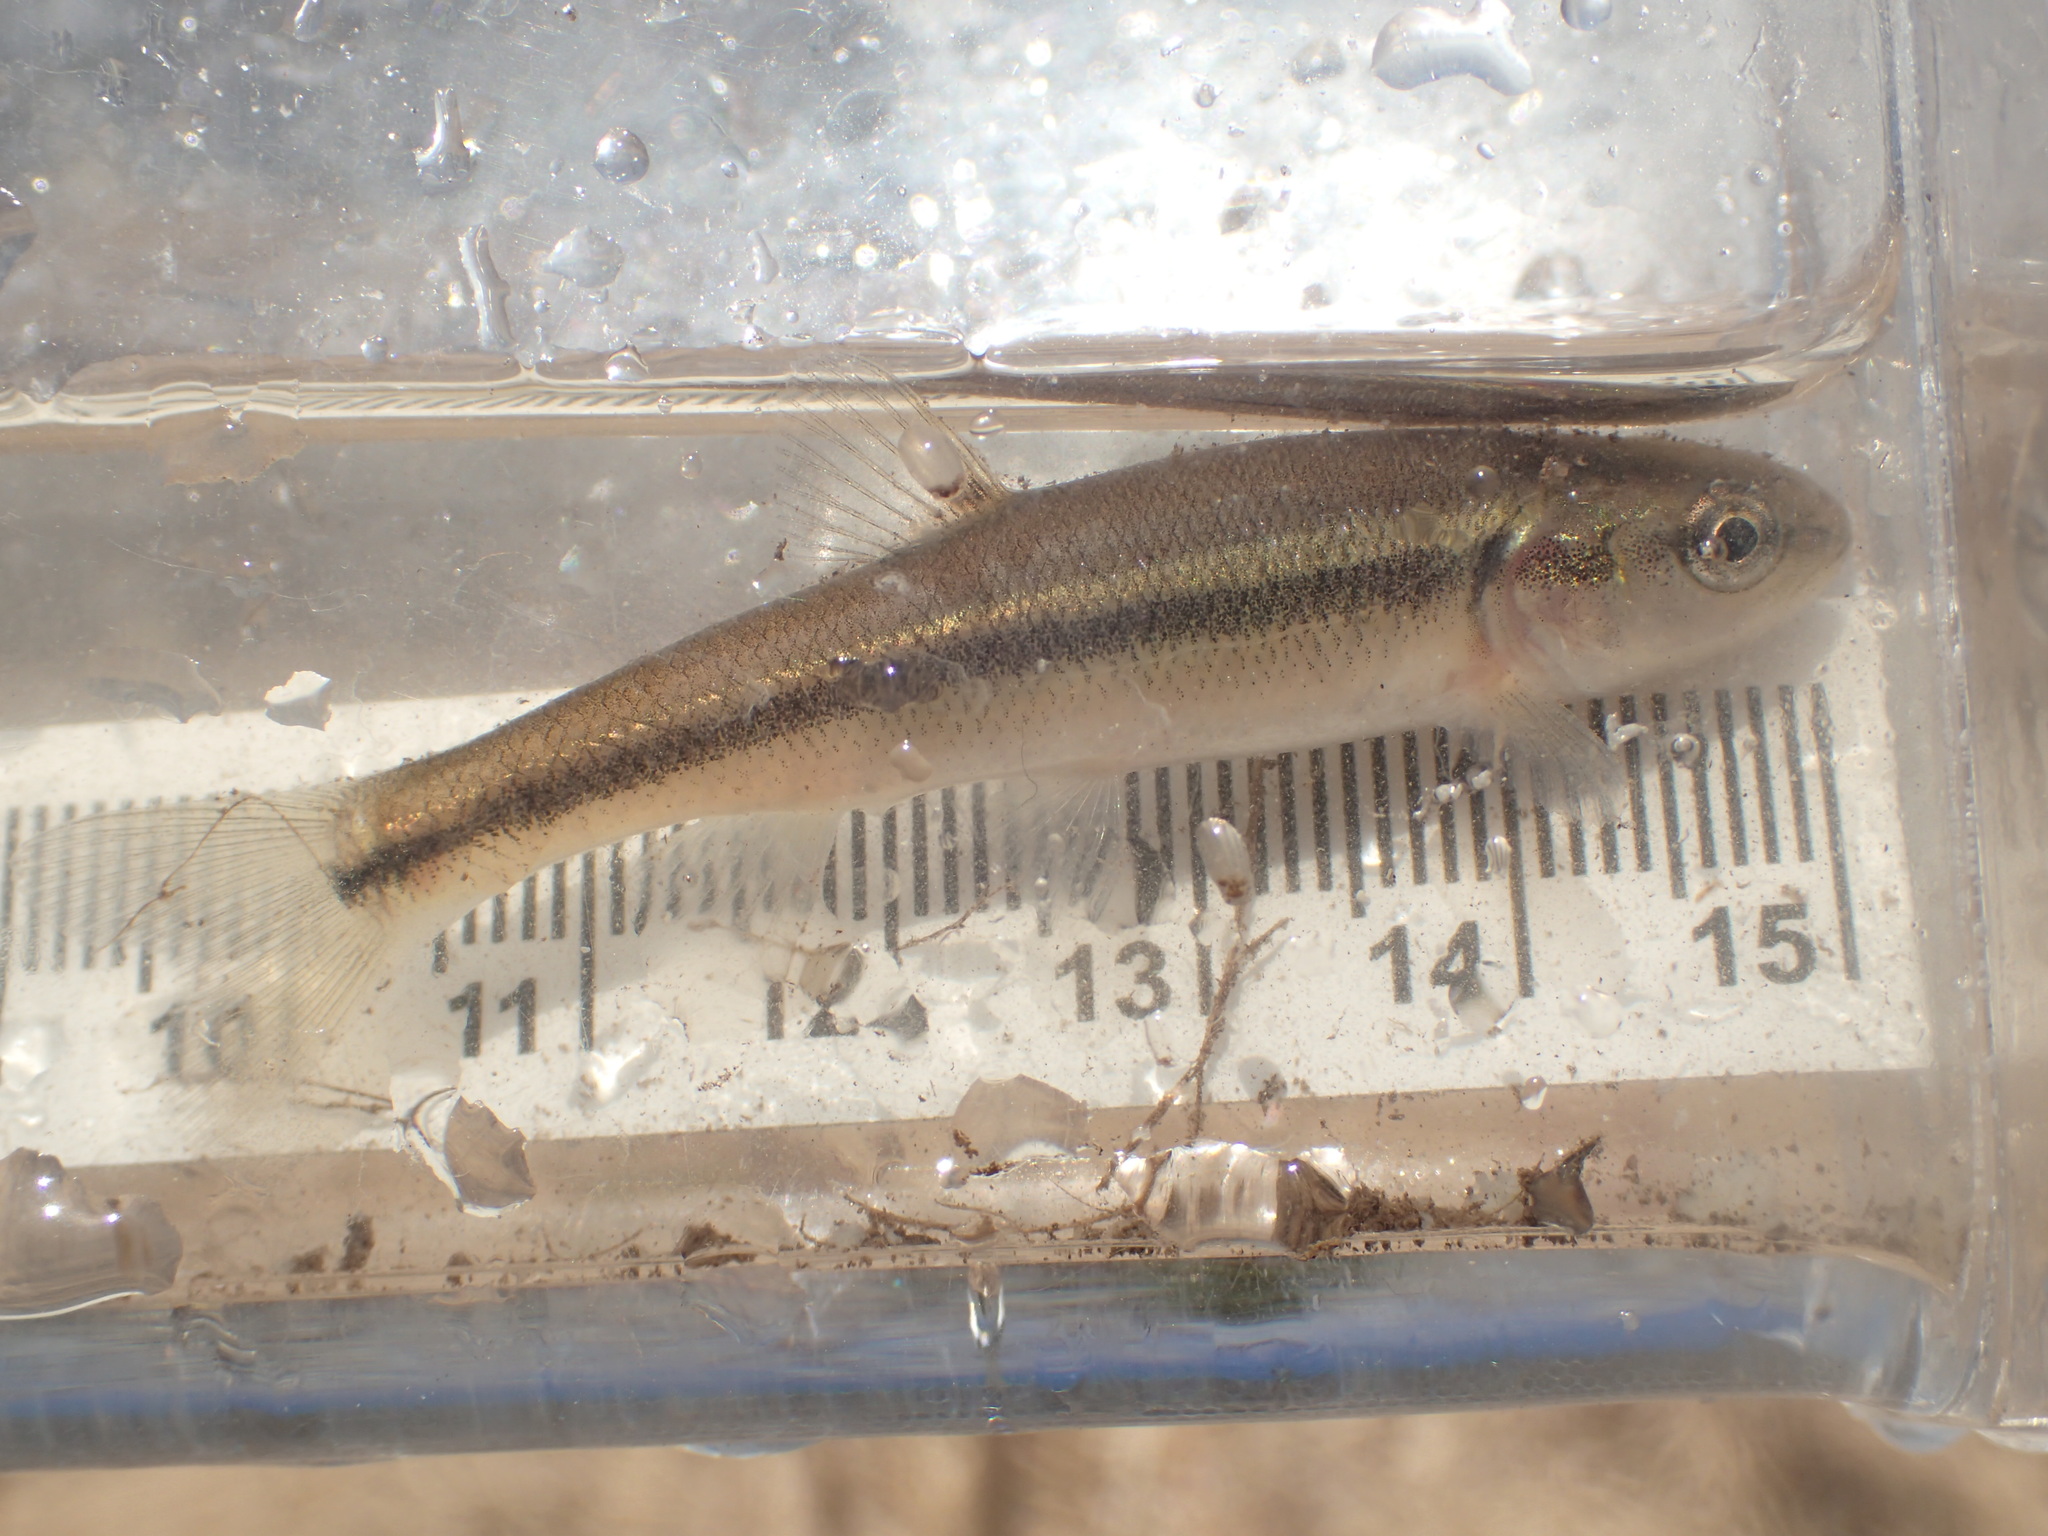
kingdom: Animalia
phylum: Chordata
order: Cypriniformes
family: Cyprinidae
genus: Semotilus
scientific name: Semotilus atromaculatus
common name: Creek chub
